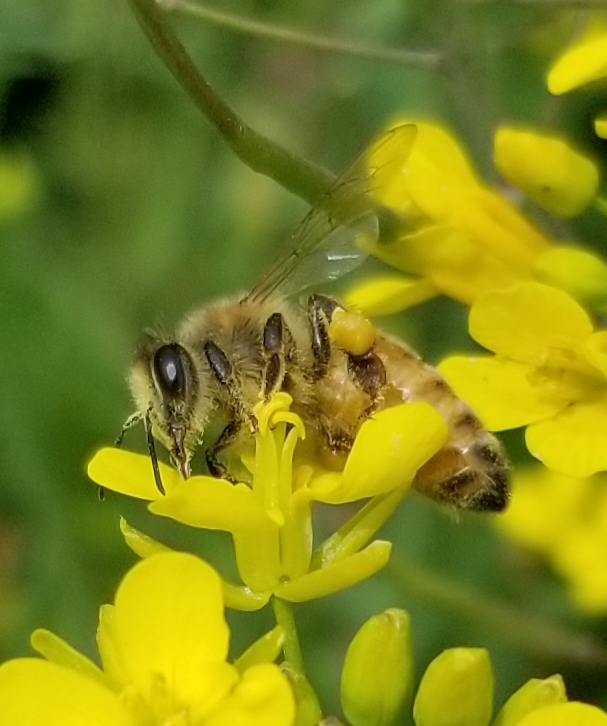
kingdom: Animalia
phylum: Arthropoda
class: Insecta
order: Hymenoptera
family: Apidae
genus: Apis
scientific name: Apis mellifera
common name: Honey bee
